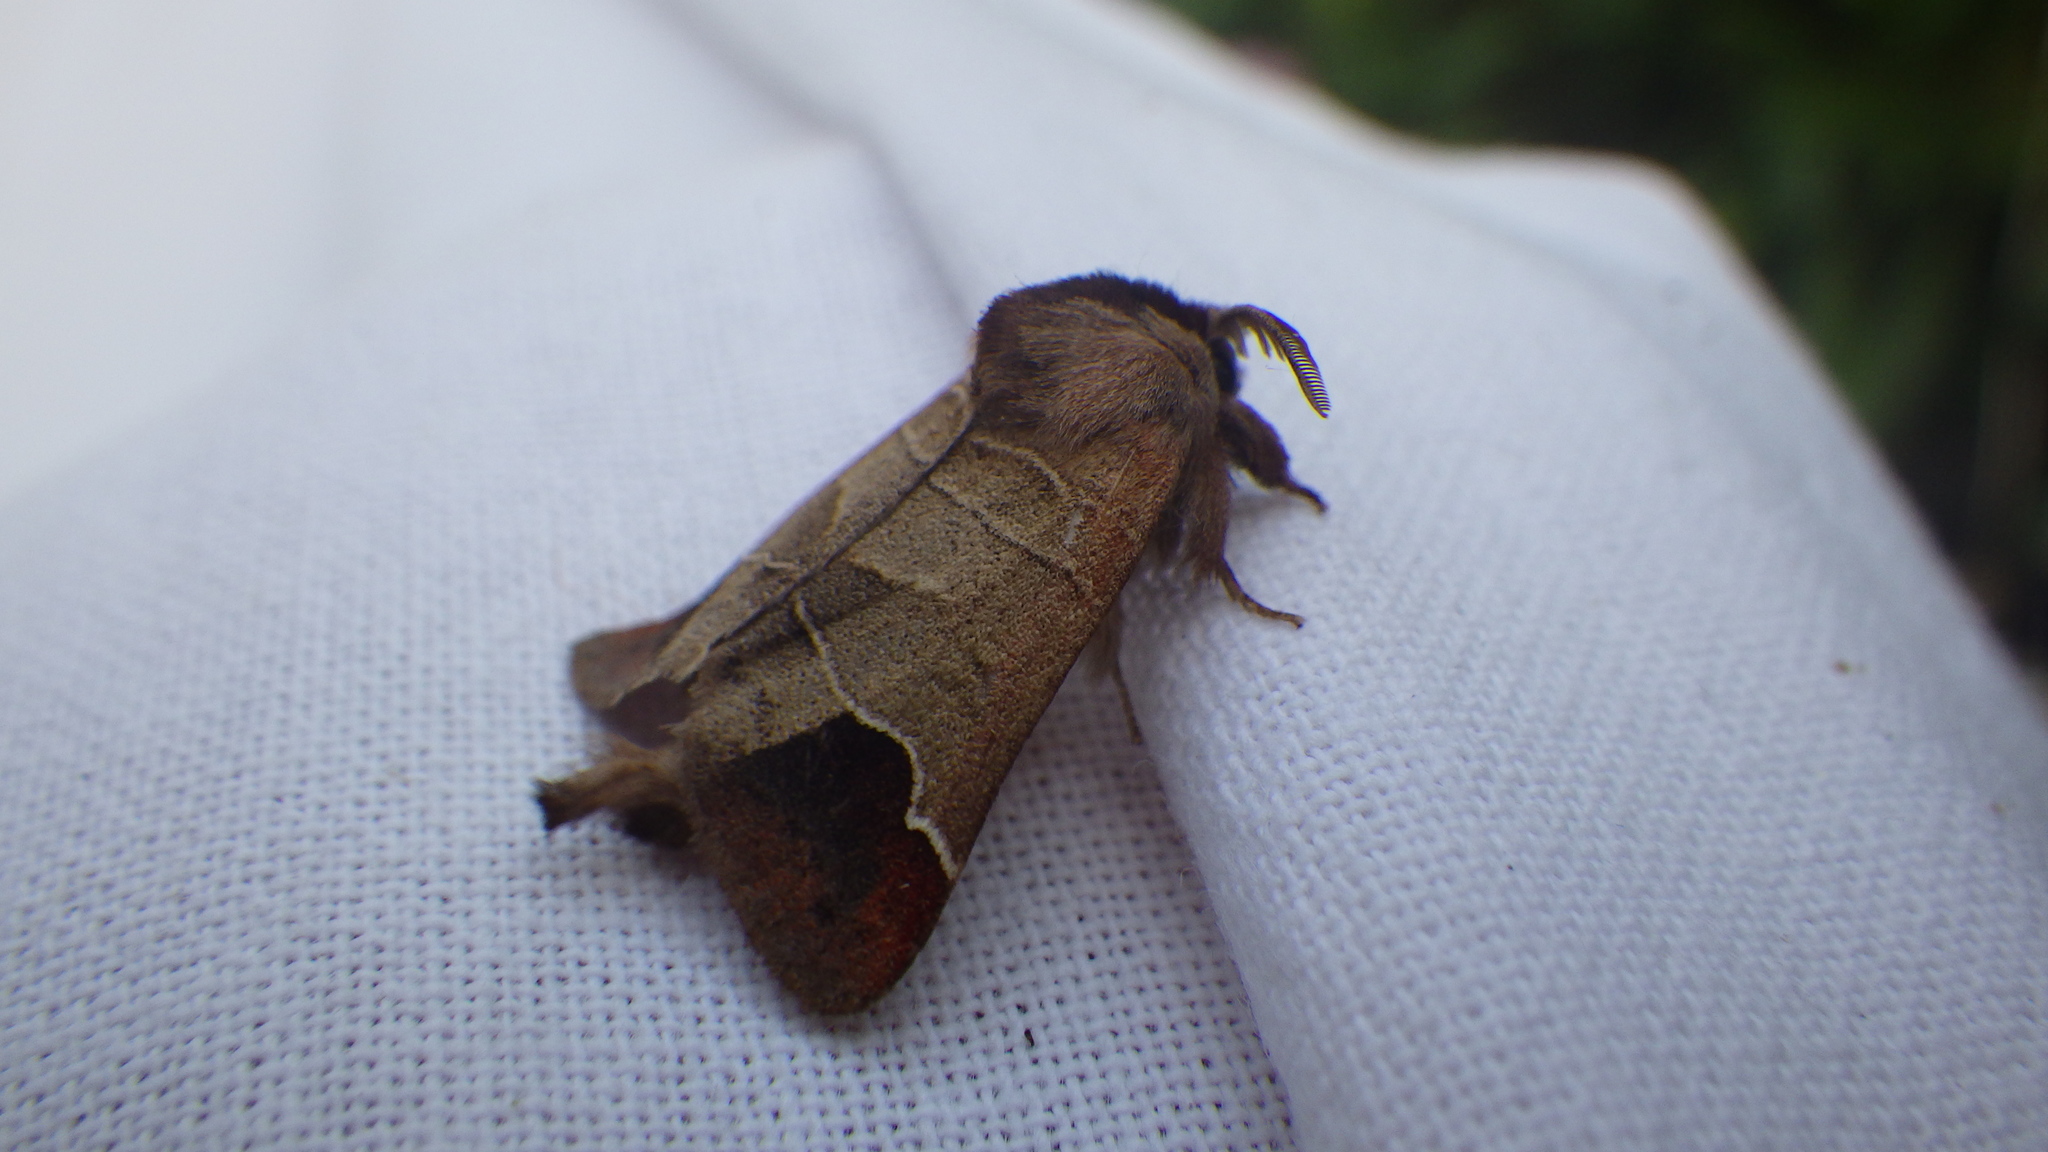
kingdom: Animalia
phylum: Arthropoda
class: Insecta
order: Lepidoptera
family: Notodontidae
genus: Clostera
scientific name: Clostera curtula
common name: Chocolate-tip
